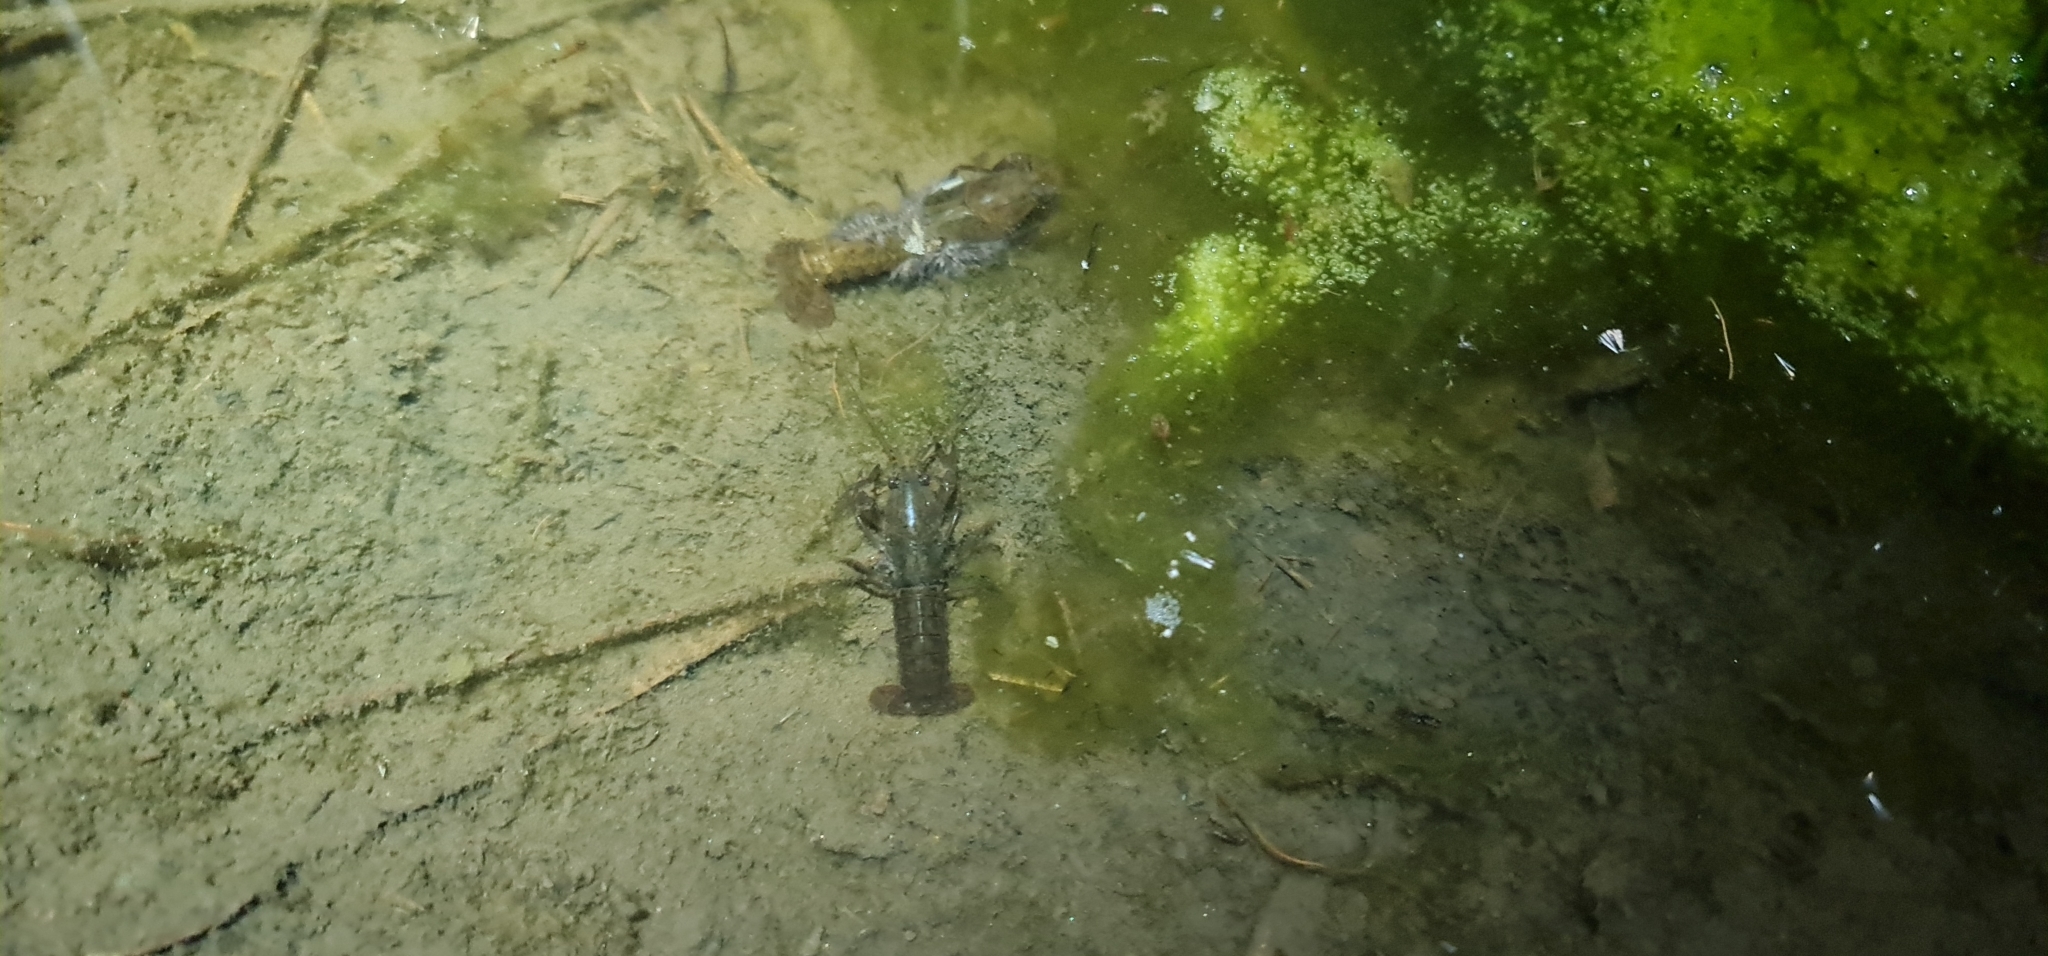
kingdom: Animalia
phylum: Arthropoda
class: Malacostraca
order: Decapoda
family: Parastacidae
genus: Cherax
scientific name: Cherax destructor
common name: Yabby
